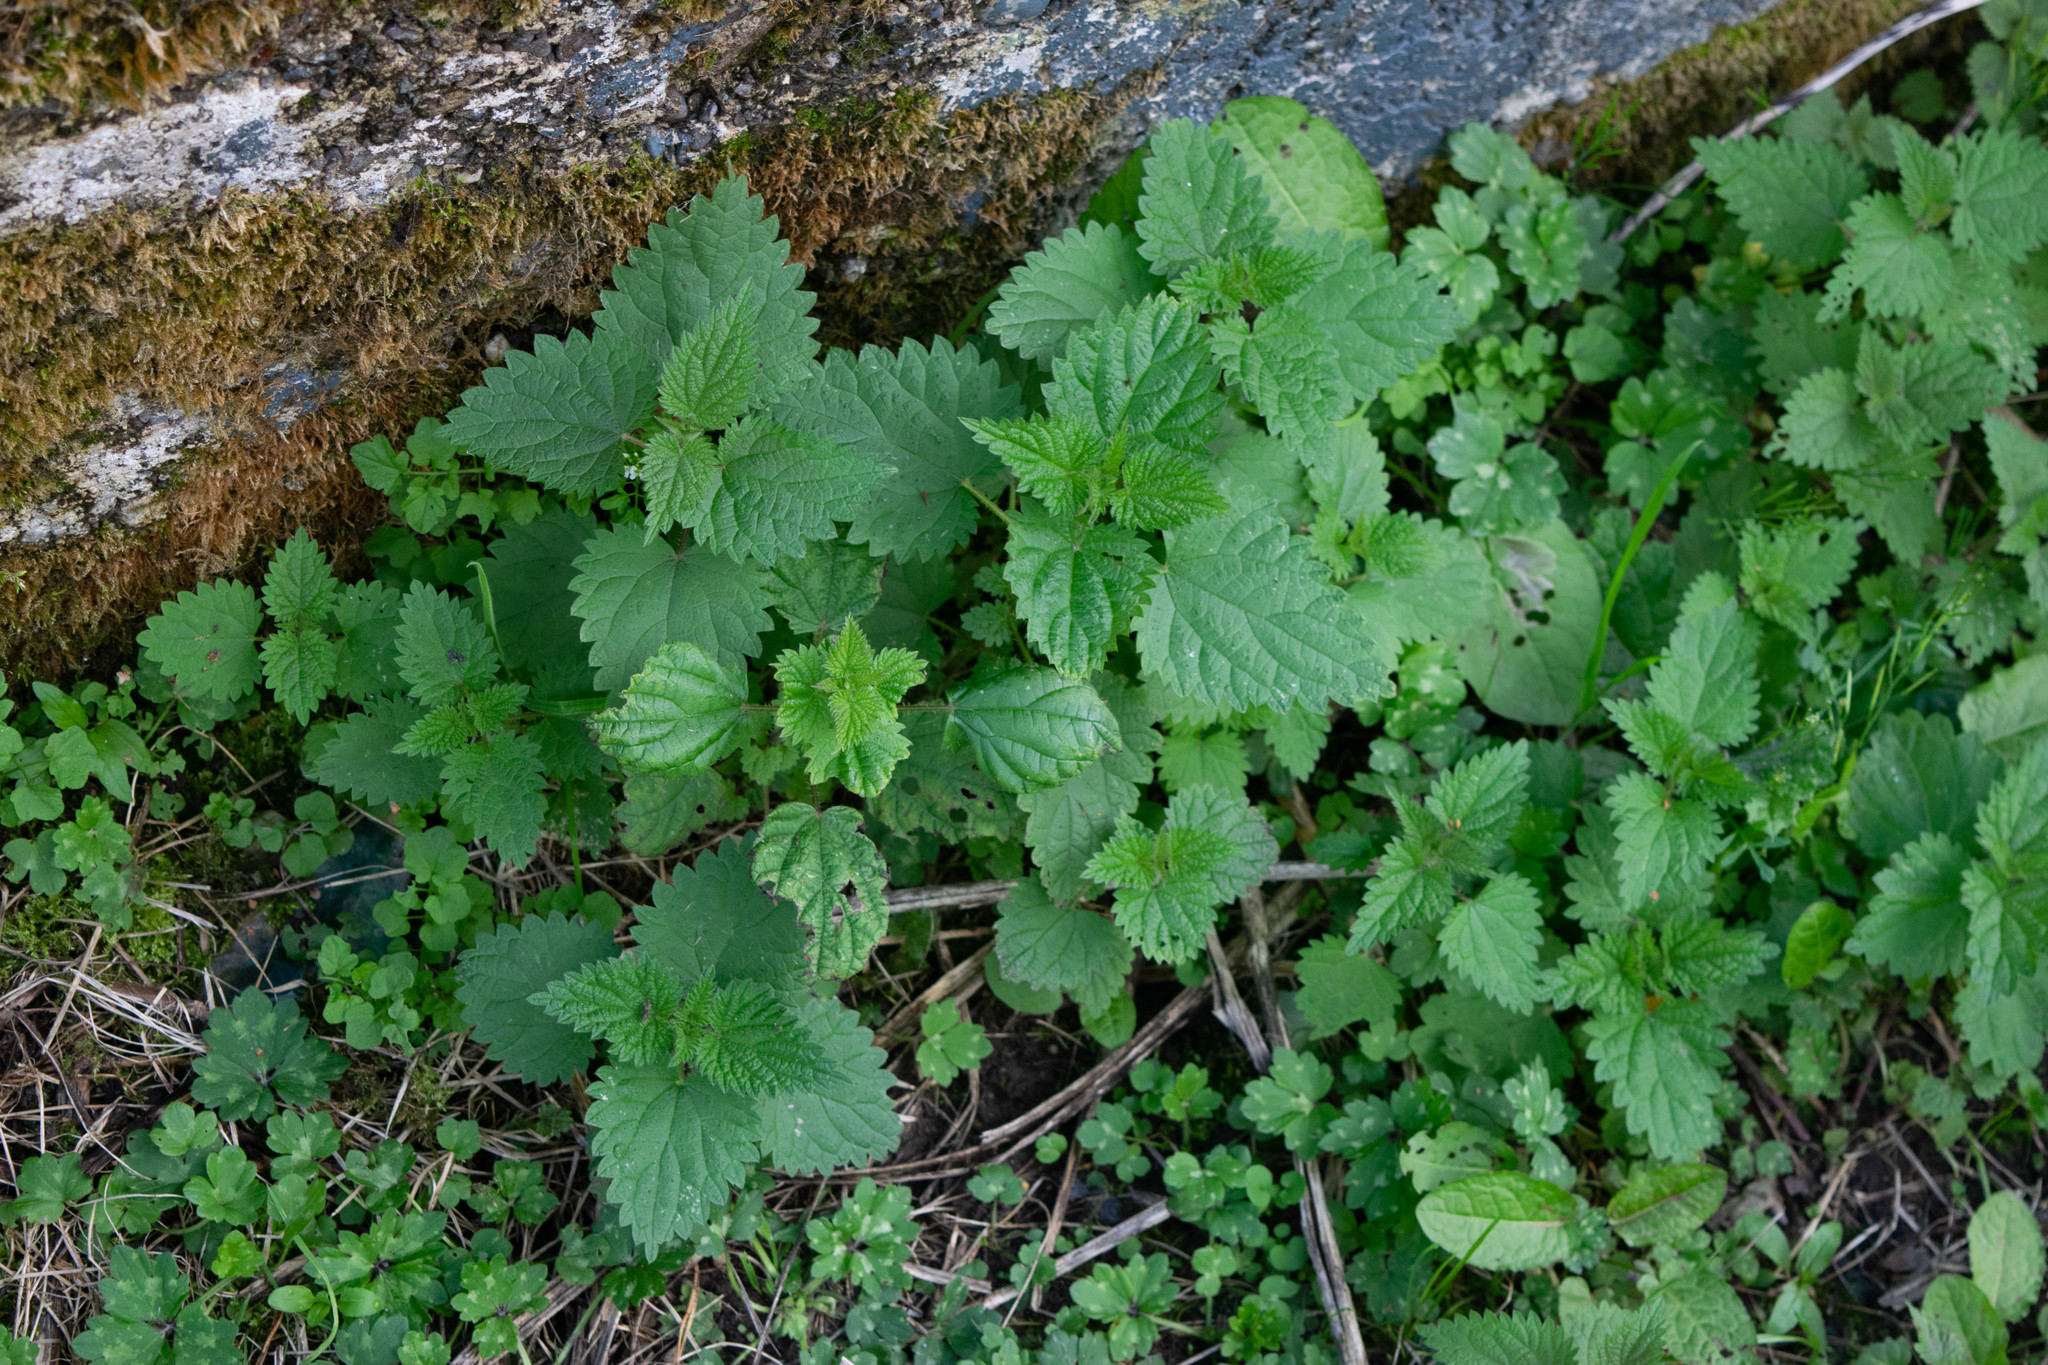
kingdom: Plantae
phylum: Tracheophyta
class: Magnoliopsida
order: Rosales
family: Urticaceae
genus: Urtica
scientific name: Urtica dioica
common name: Common nettle
